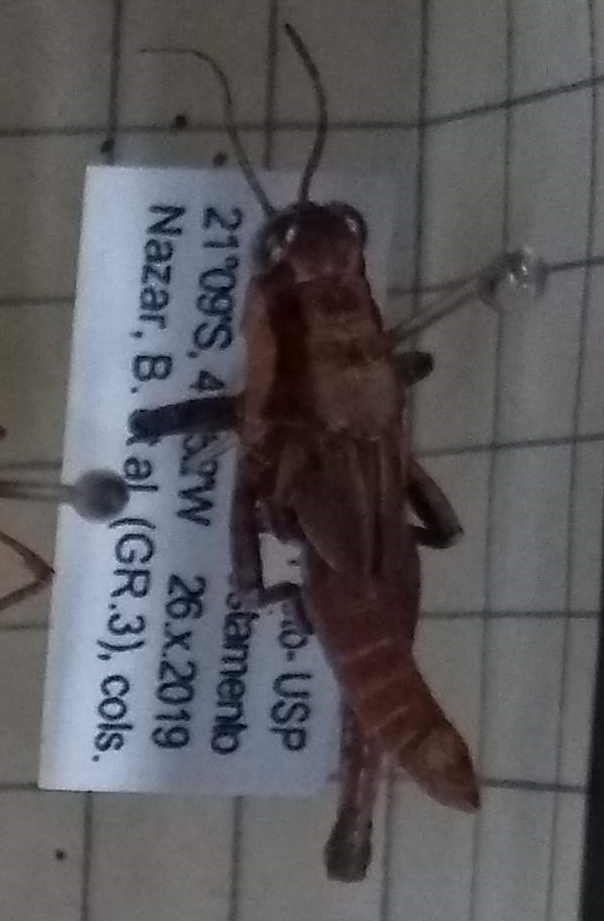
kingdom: Animalia
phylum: Arthropoda
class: Insecta
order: Orthoptera
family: Acrididae
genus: Ronderosia
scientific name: Ronderosia bergii
